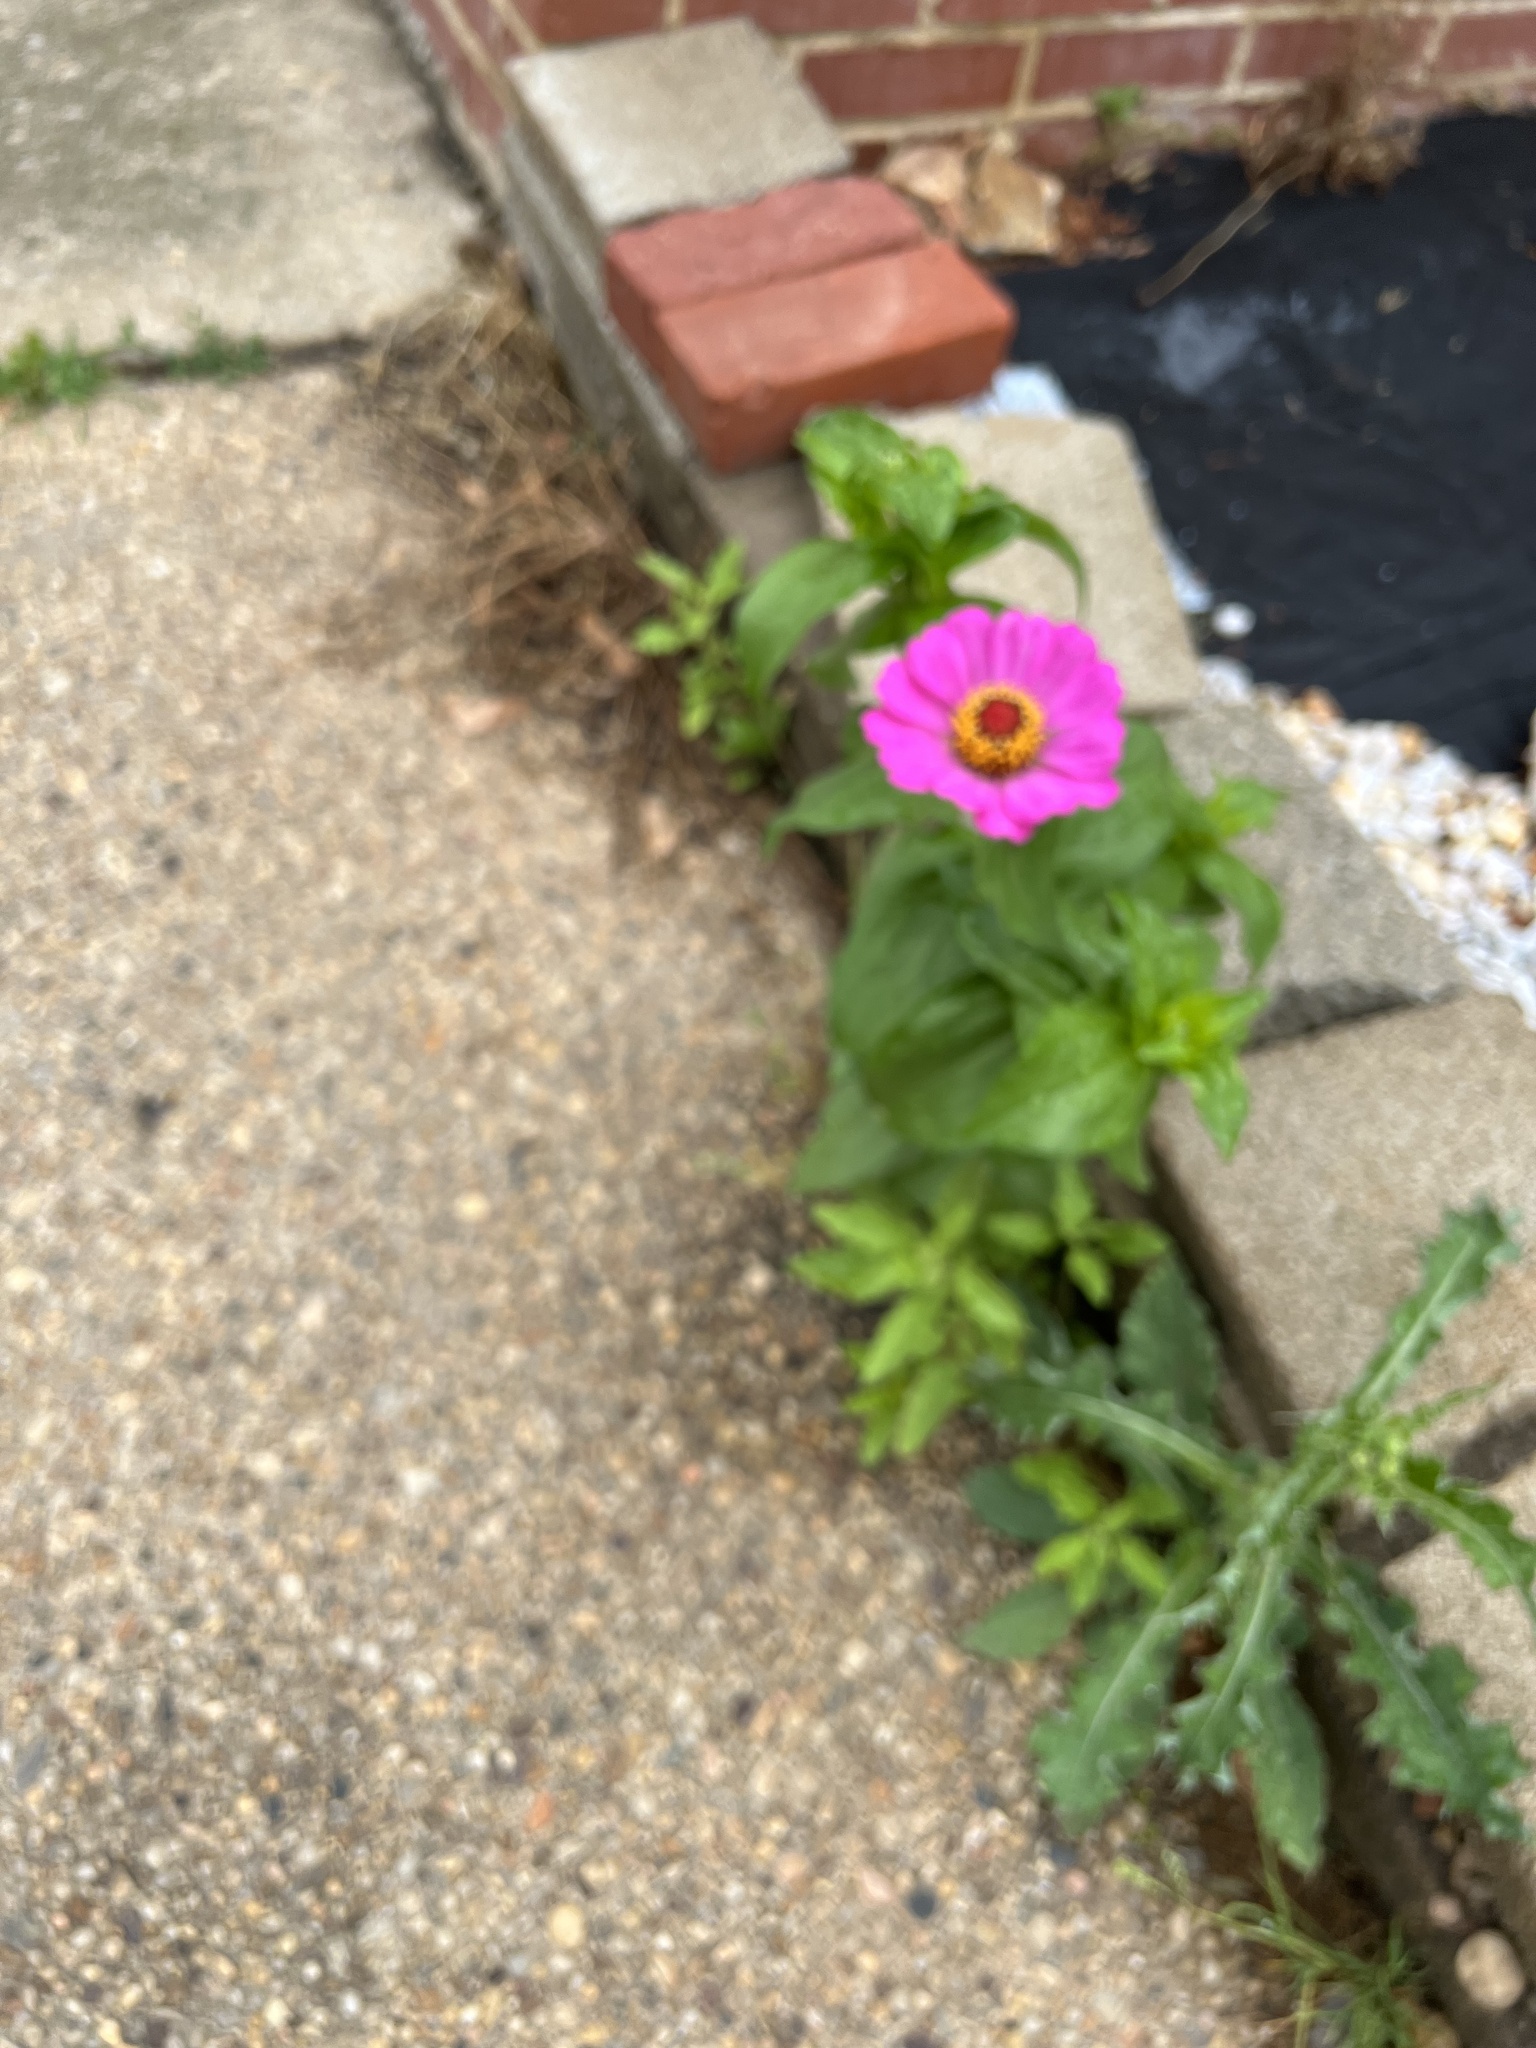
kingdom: Plantae
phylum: Tracheophyta
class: Magnoliopsida
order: Asterales
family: Asteraceae
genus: Zinnia
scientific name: Zinnia elegans
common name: Youth-and-age
